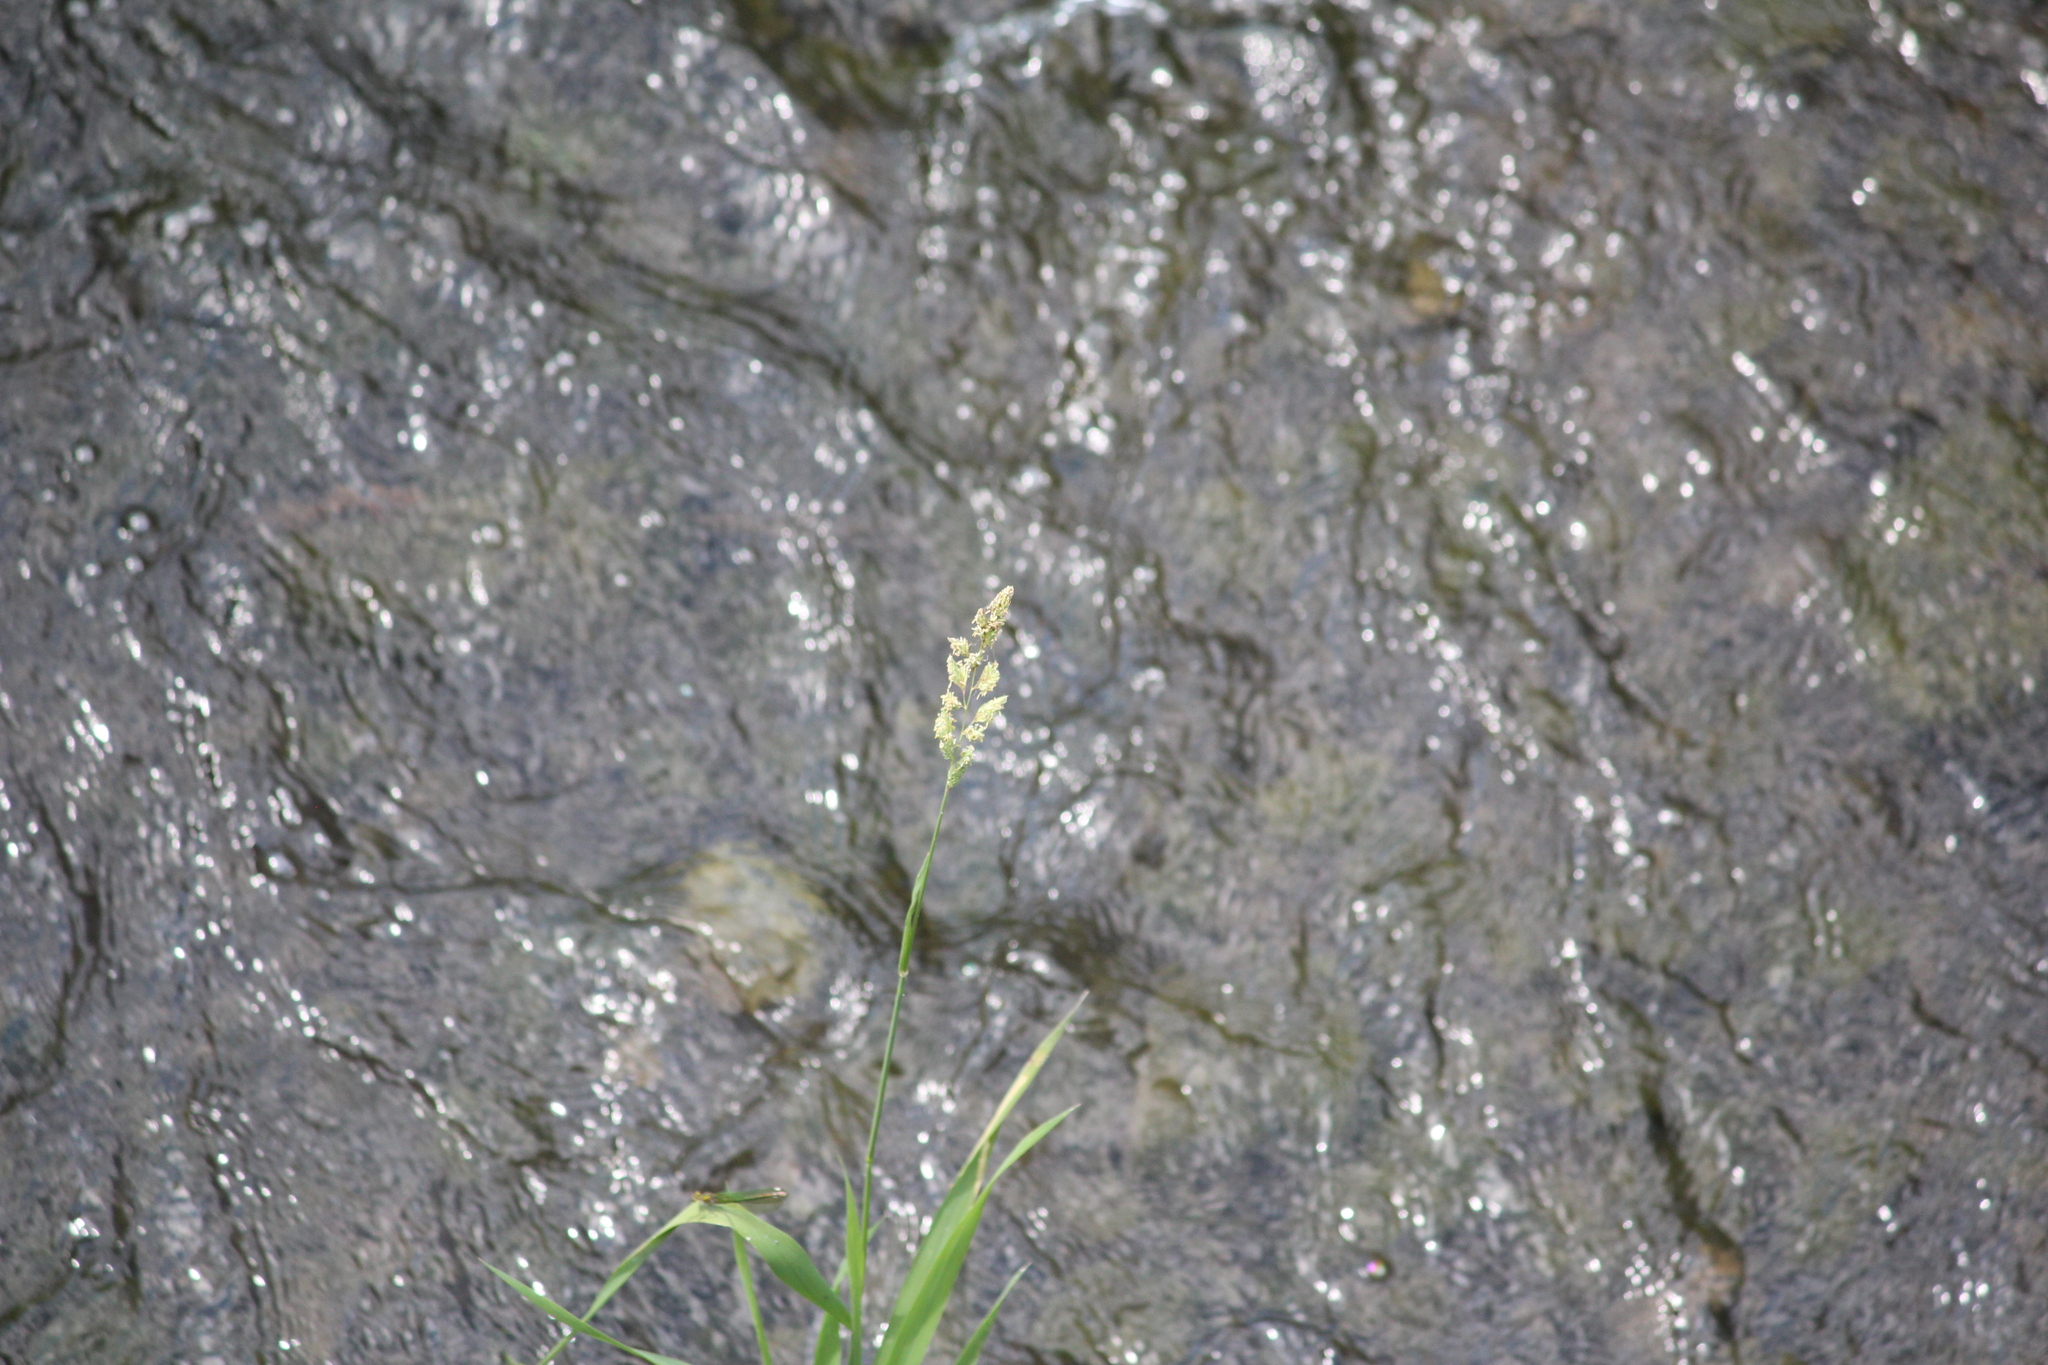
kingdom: Plantae
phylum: Tracheophyta
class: Liliopsida
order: Poales
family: Poaceae
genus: Phalaris
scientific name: Phalaris arundinacea
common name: Reed canary-grass
